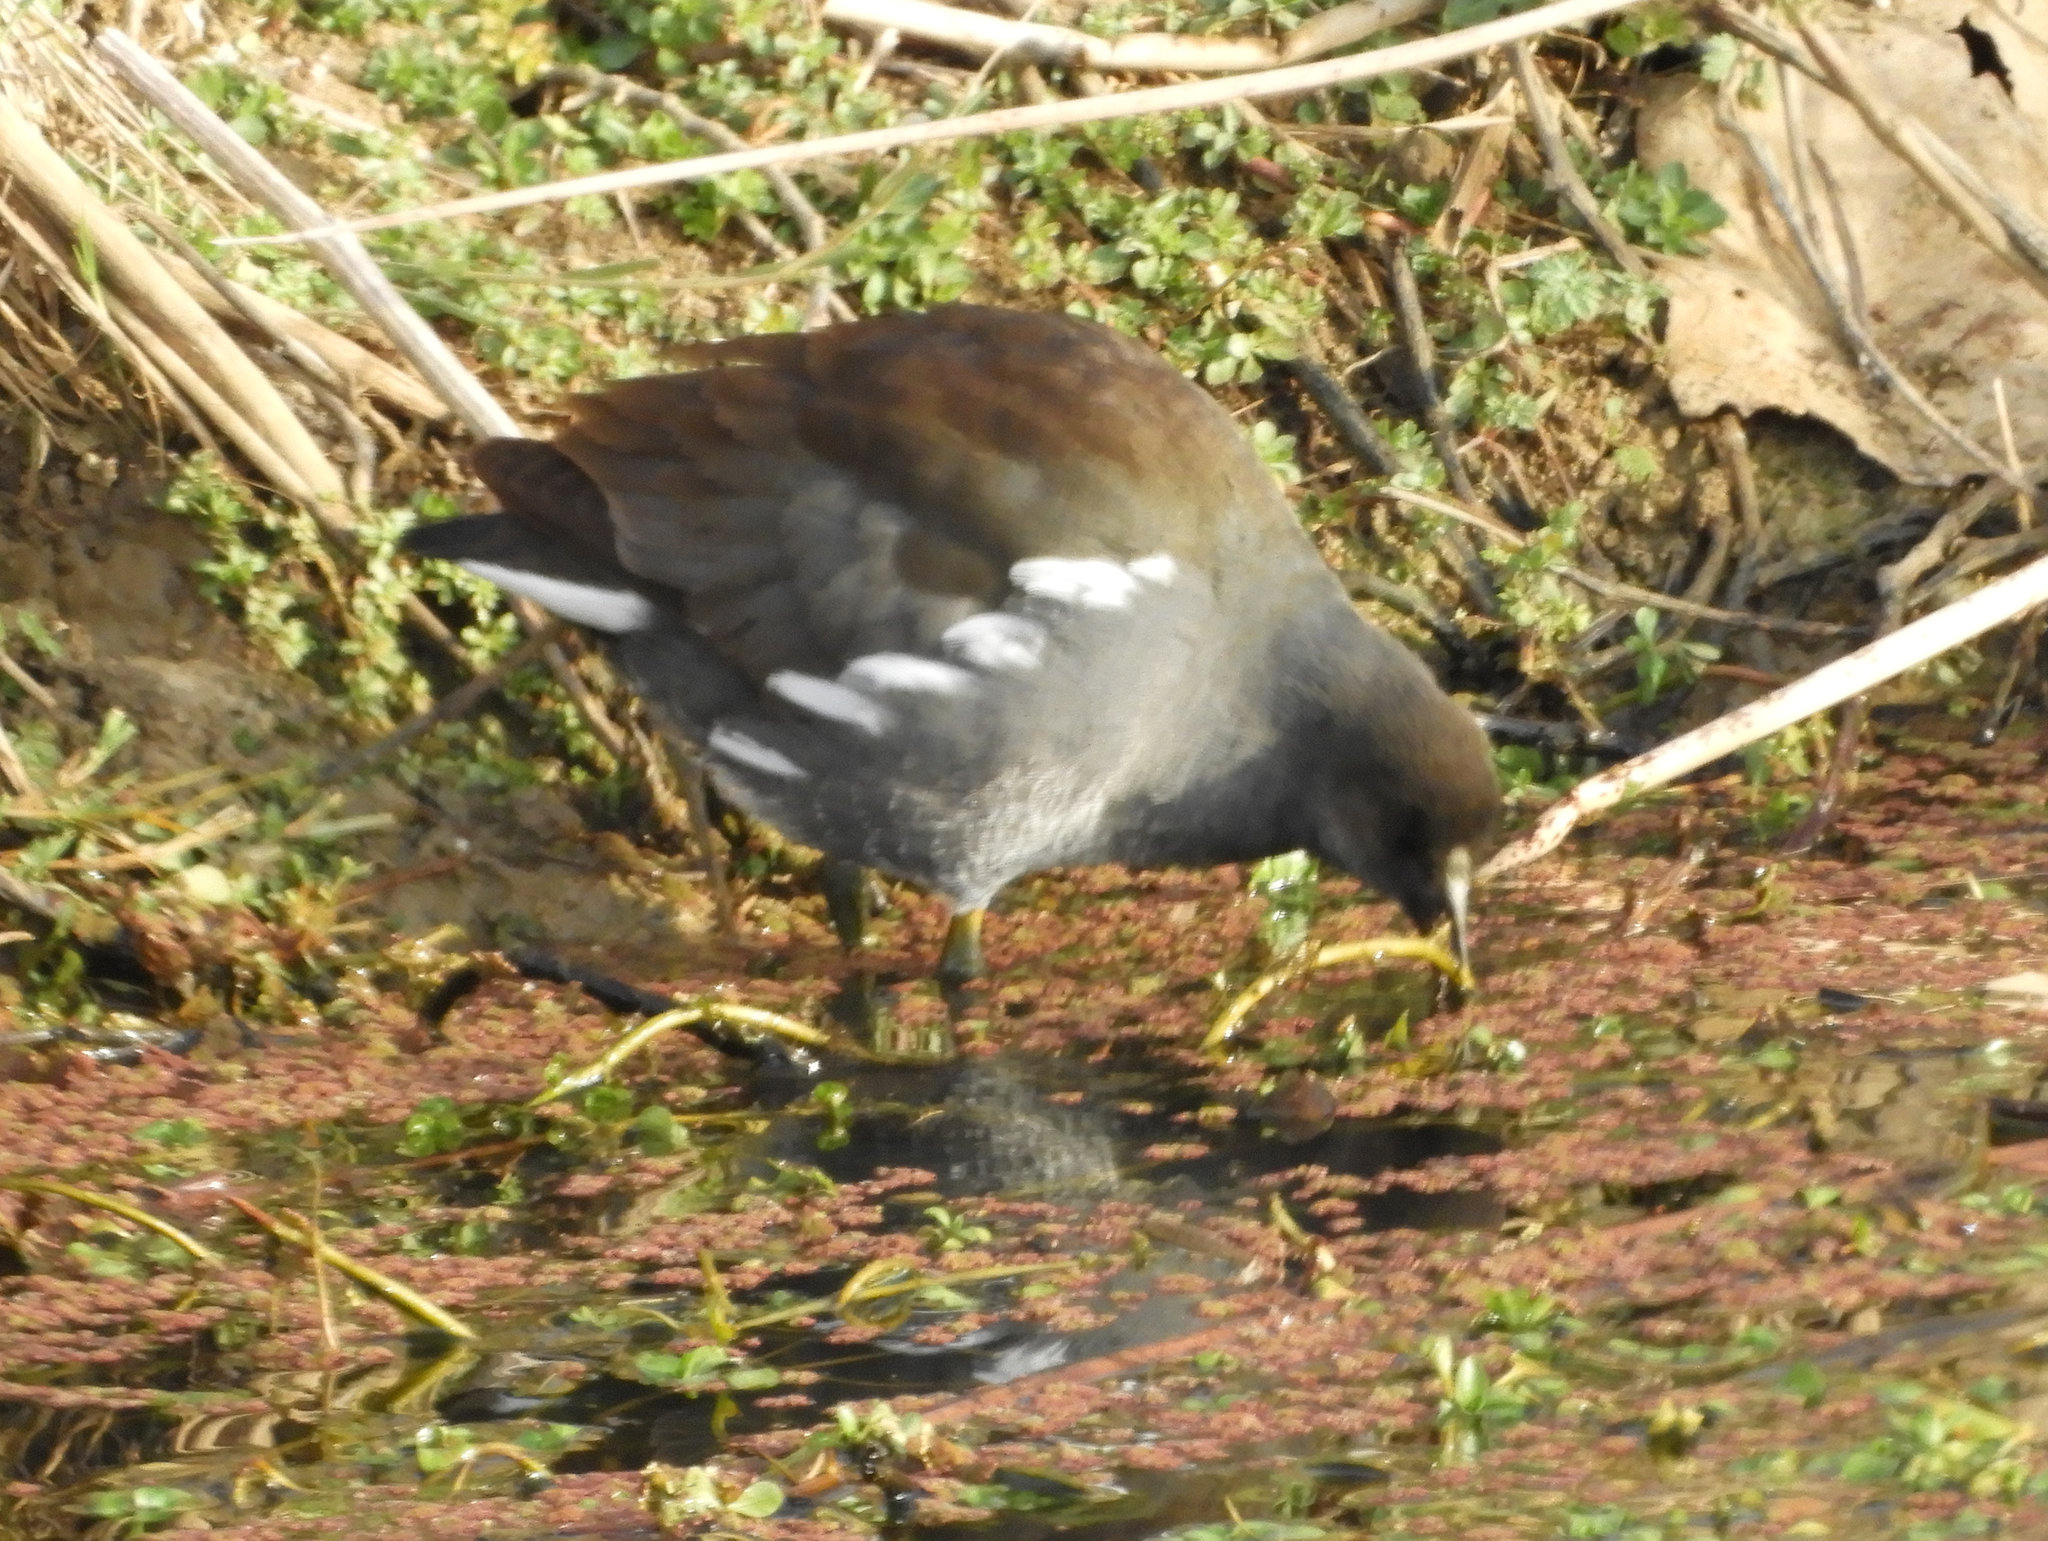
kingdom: Animalia
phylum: Chordata
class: Aves
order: Gruiformes
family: Rallidae
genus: Gallinula
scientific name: Gallinula chloropus
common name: Common moorhen
